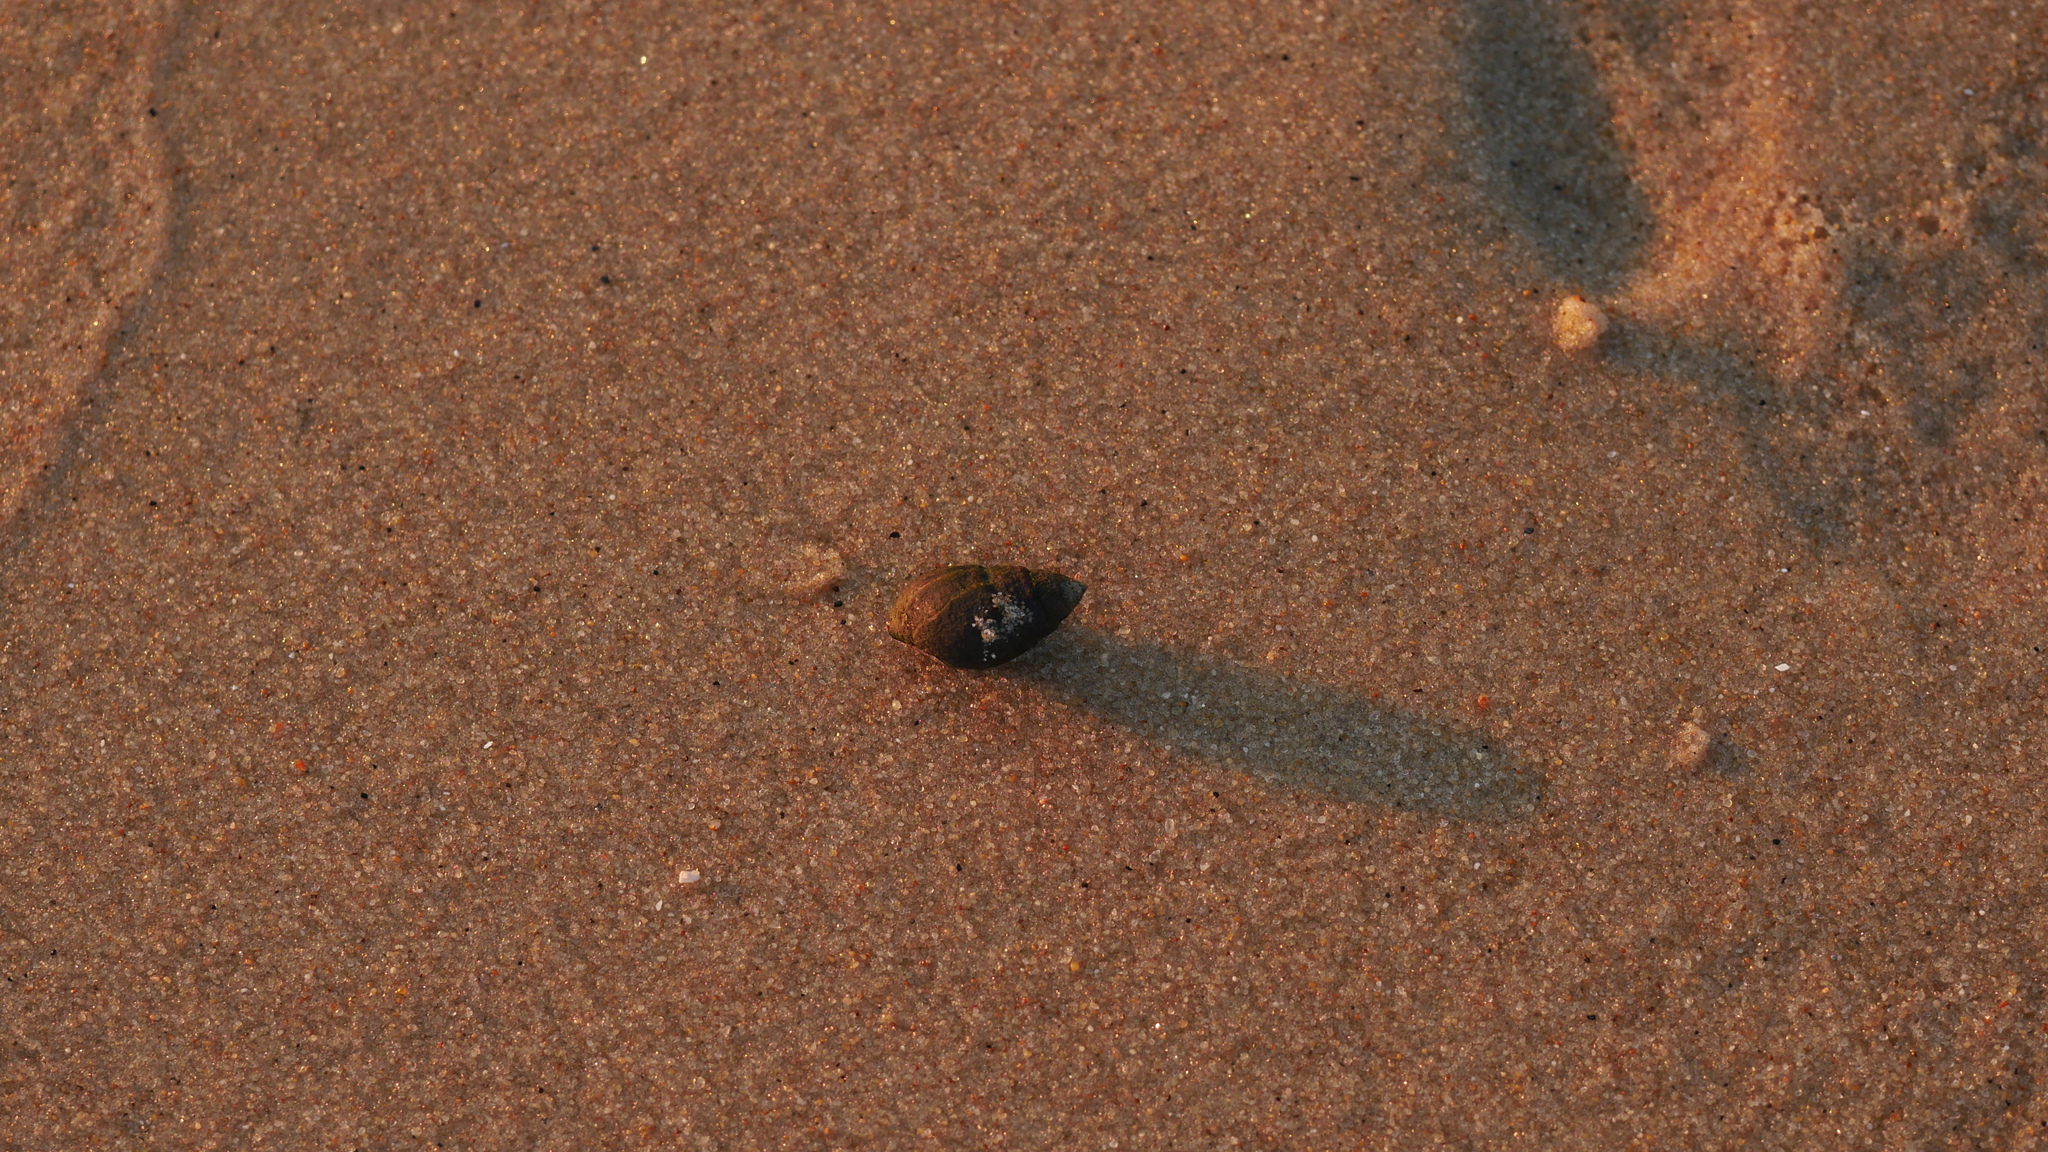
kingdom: Animalia
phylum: Mollusca
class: Gastropoda
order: Neogastropoda
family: Nassariidae
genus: Ilyanassa
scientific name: Ilyanassa obsoleta
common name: Eastern mudsnail
